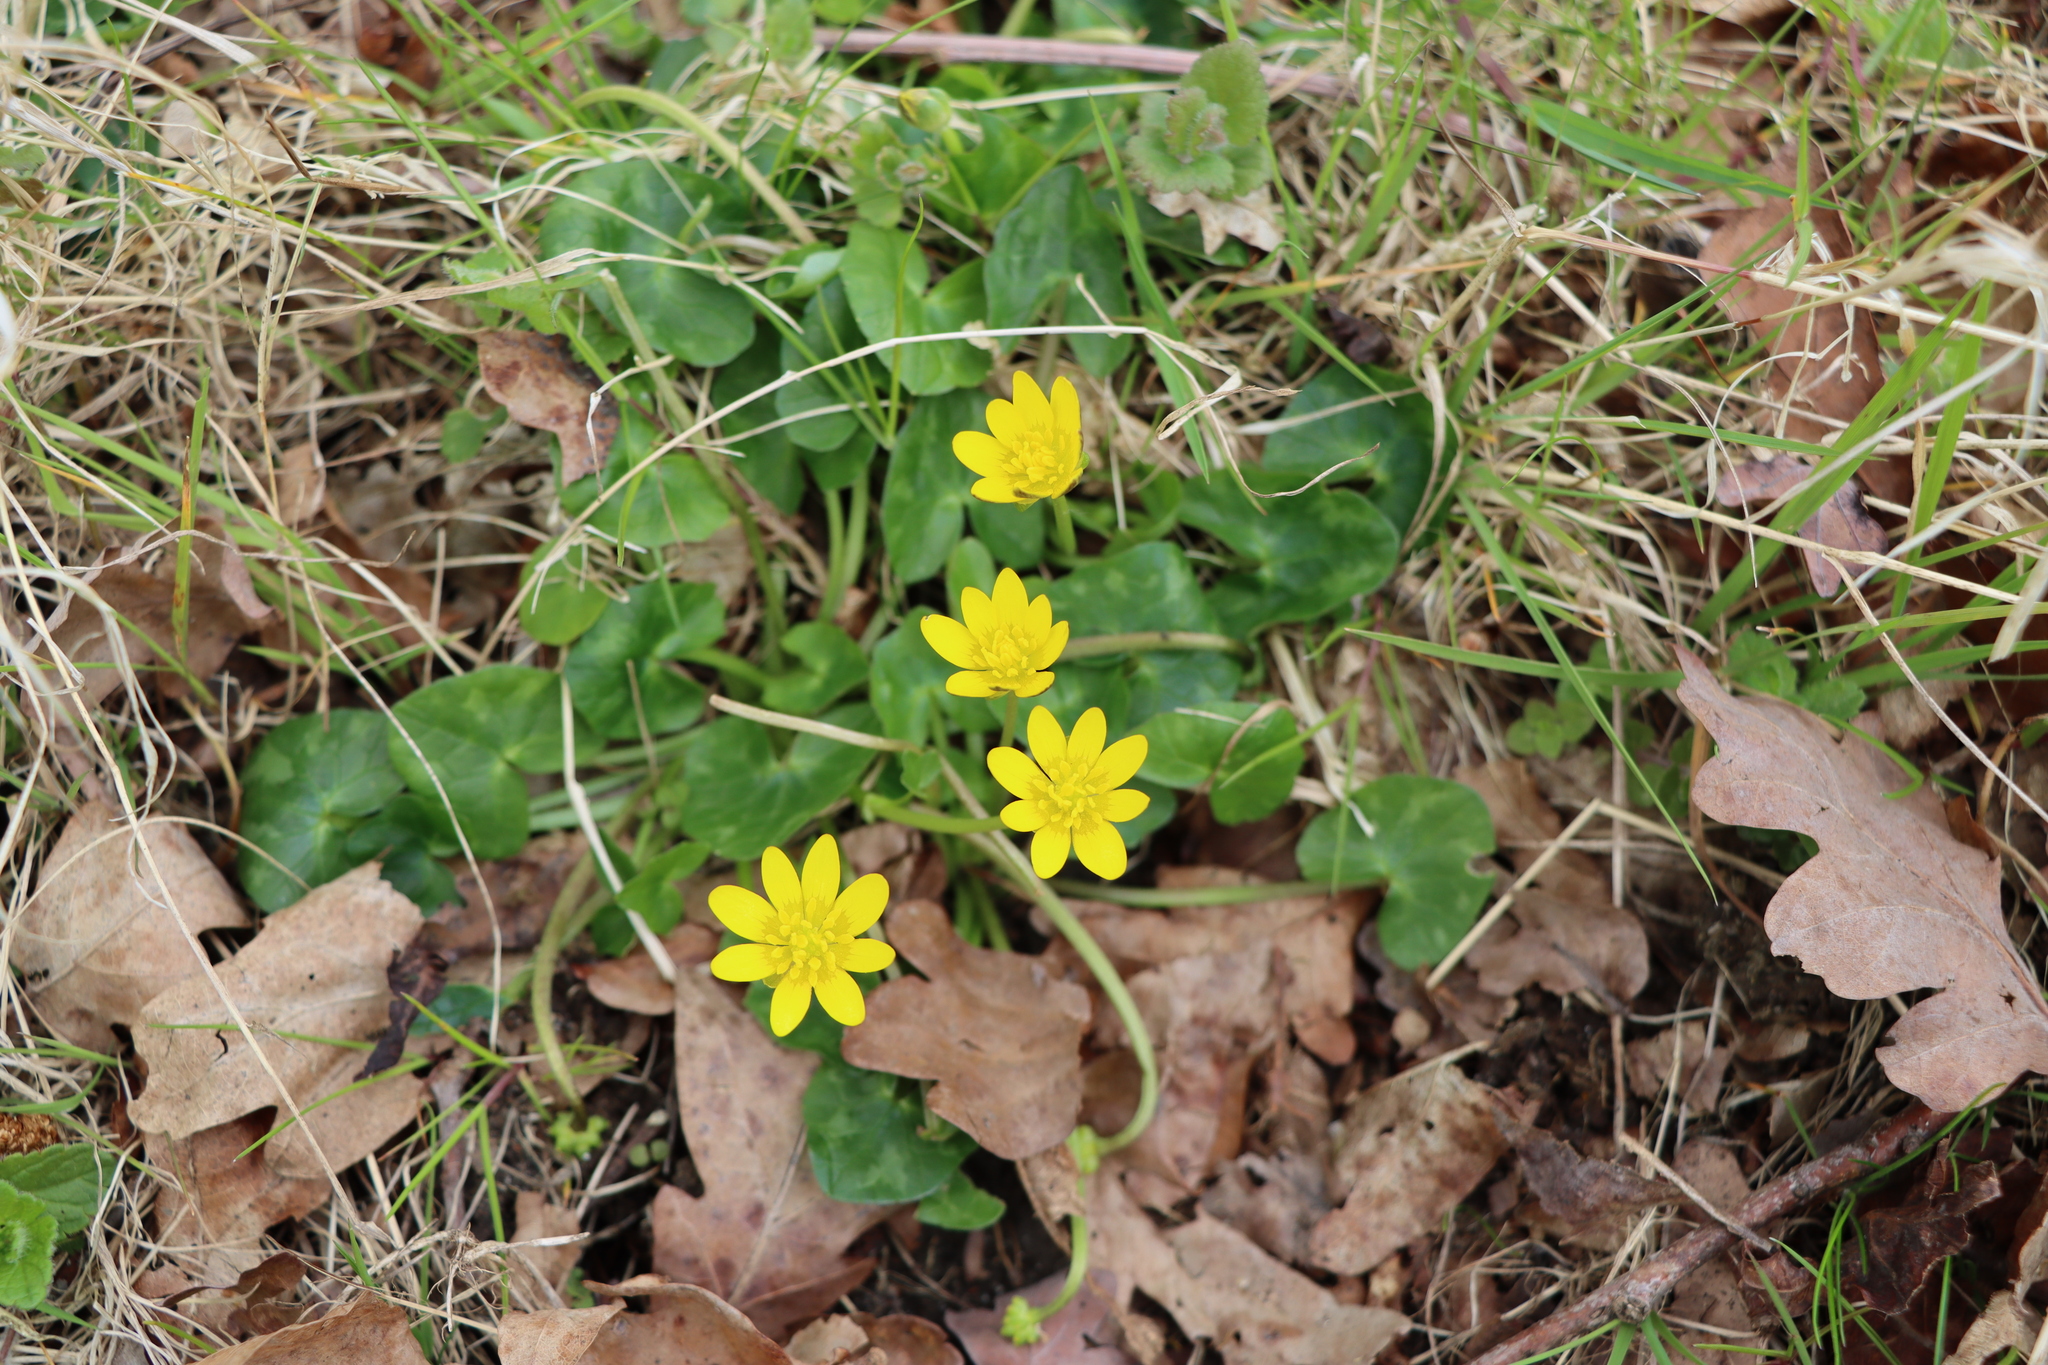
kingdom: Plantae
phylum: Tracheophyta
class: Magnoliopsida
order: Ranunculales
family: Ranunculaceae
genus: Ficaria
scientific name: Ficaria verna
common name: Lesser celandine
